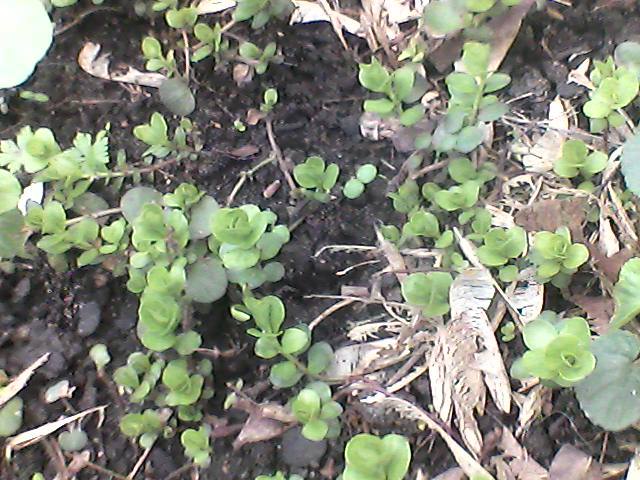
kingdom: Plantae
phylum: Tracheophyta
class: Magnoliopsida
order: Ericales
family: Primulaceae
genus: Lysimachia
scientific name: Lysimachia nummularia
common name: Moneywort
